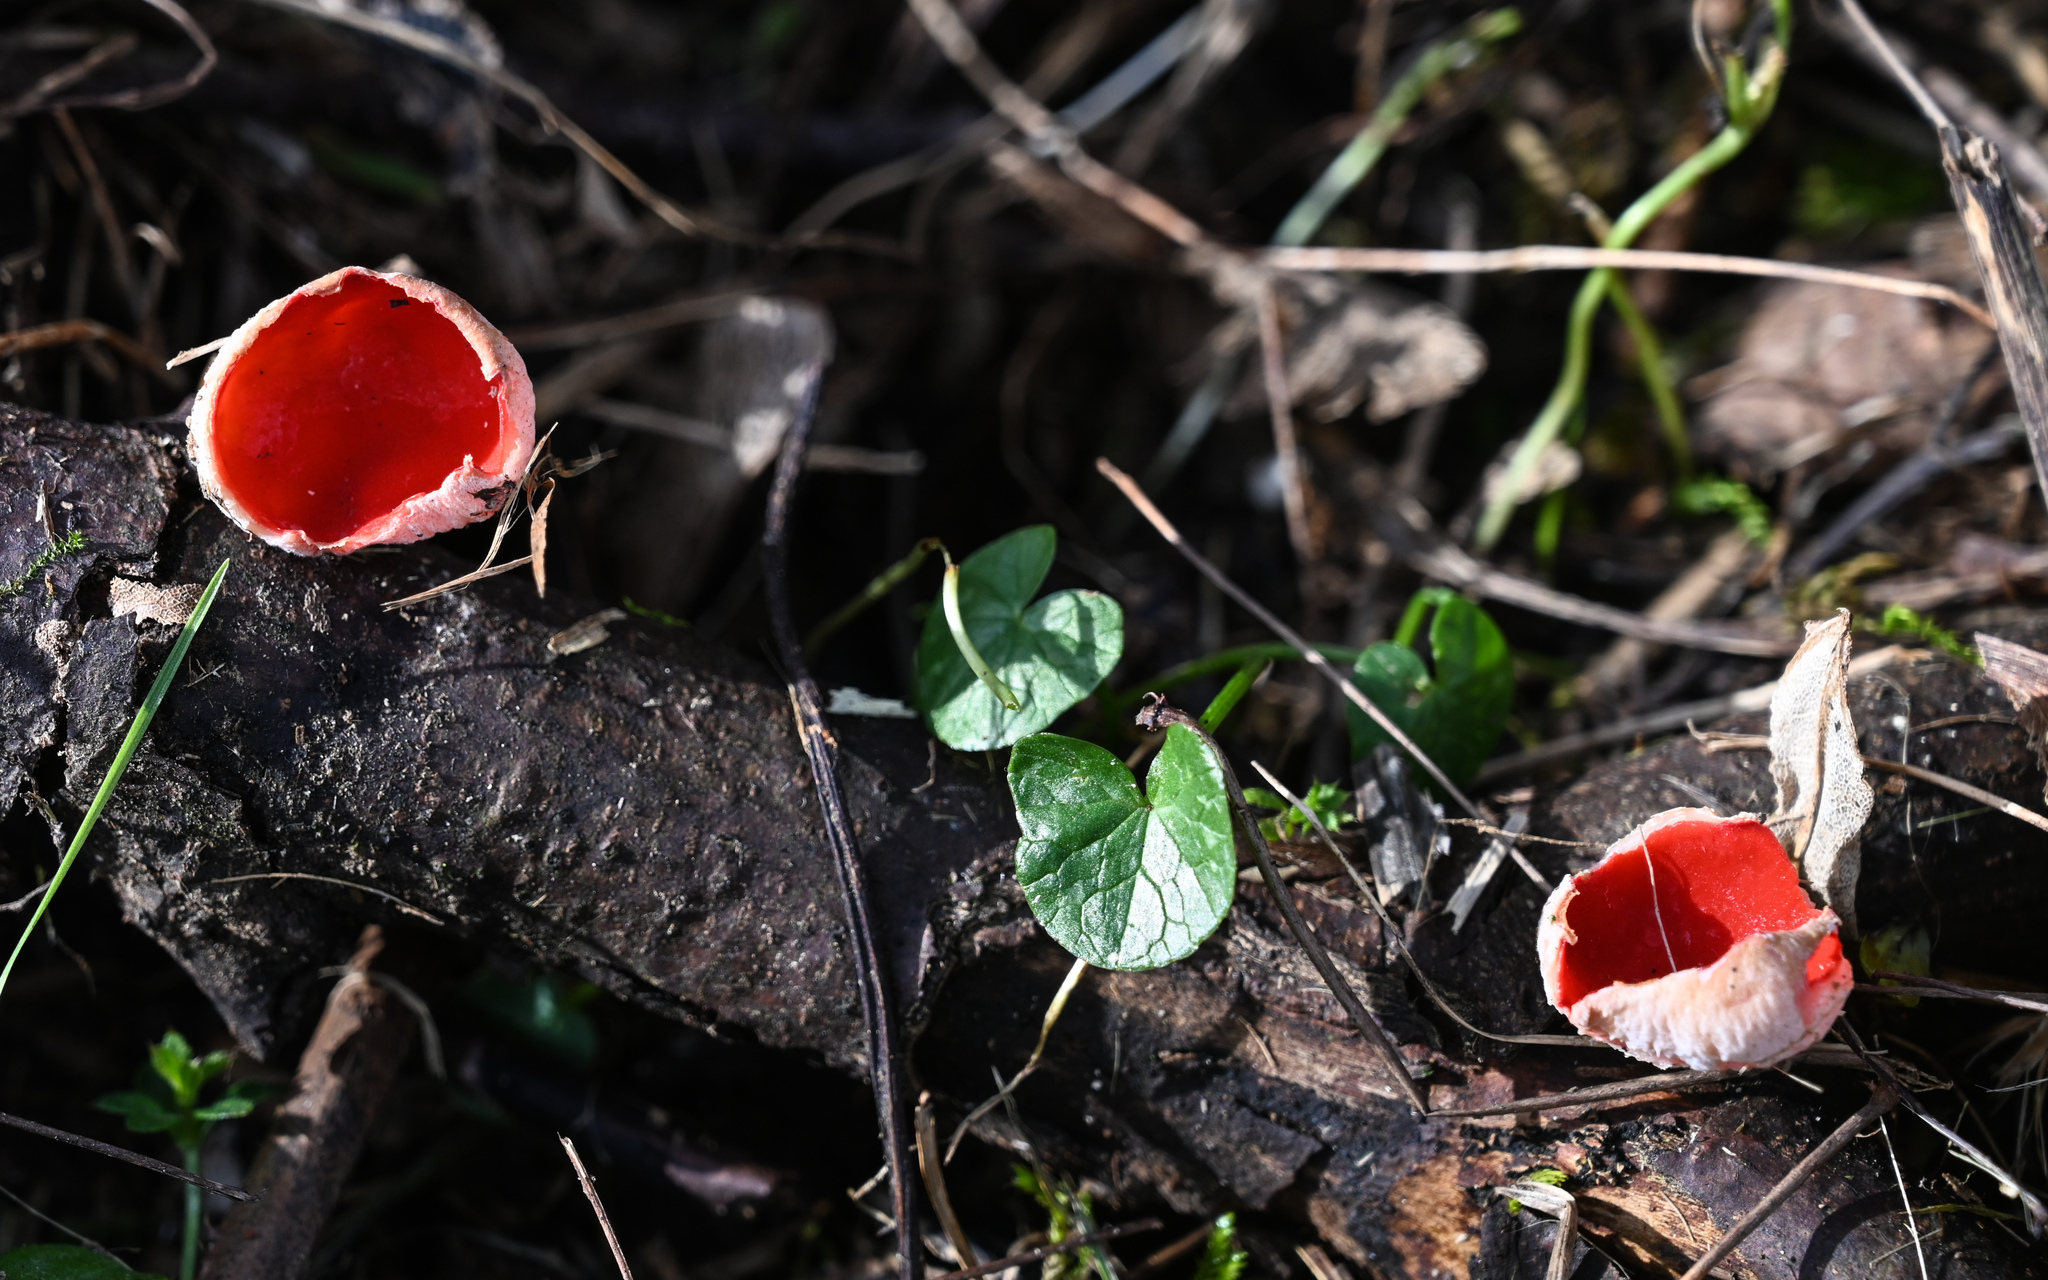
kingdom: Fungi
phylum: Ascomycota
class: Pezizomycetes
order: Pezizales
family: Sarcoscyphaceae
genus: Sarcoscypha
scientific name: Sarcoscypha
